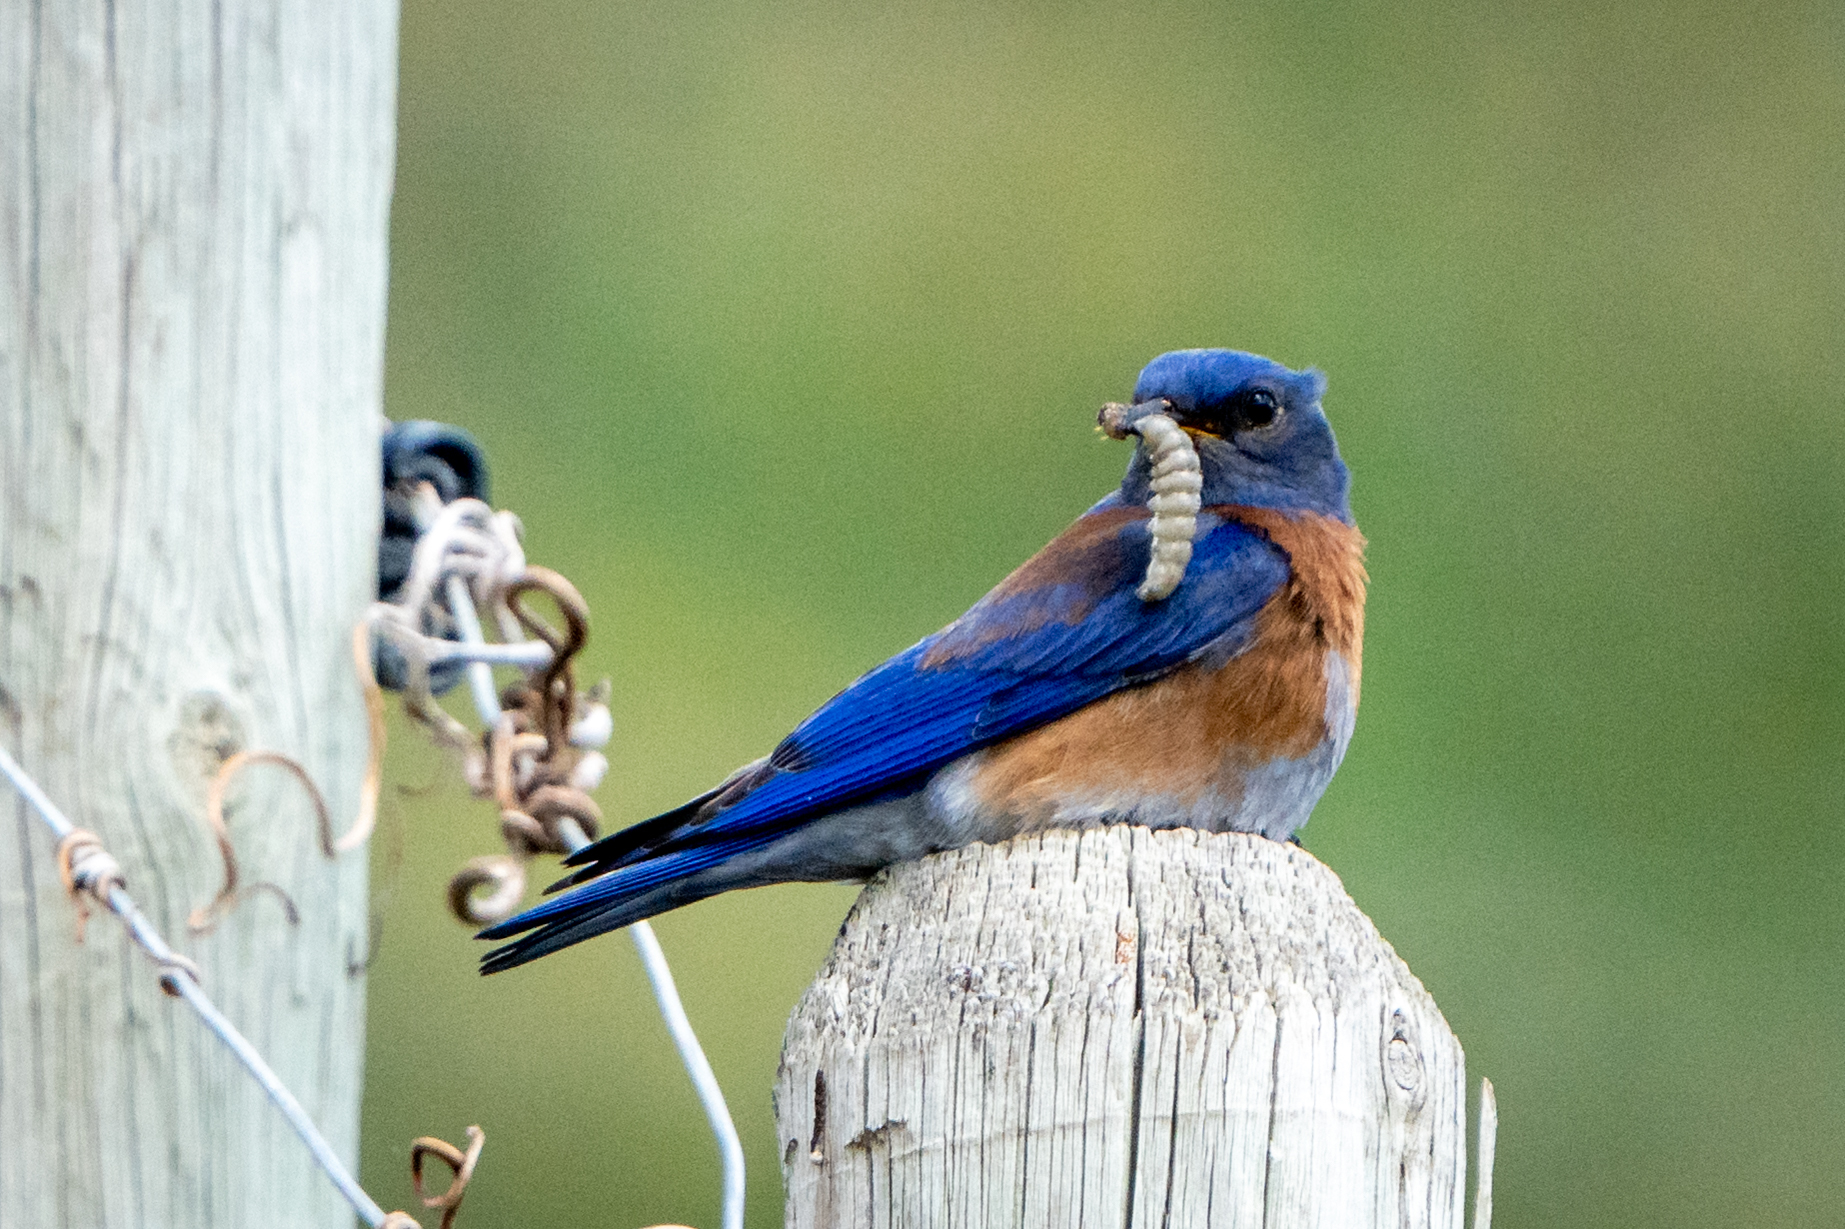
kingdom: Animalia
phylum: Chordata
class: Aves
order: Passeriformes
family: Turdidae
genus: Sialia
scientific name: Sialia mexicana
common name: Western bluebird
